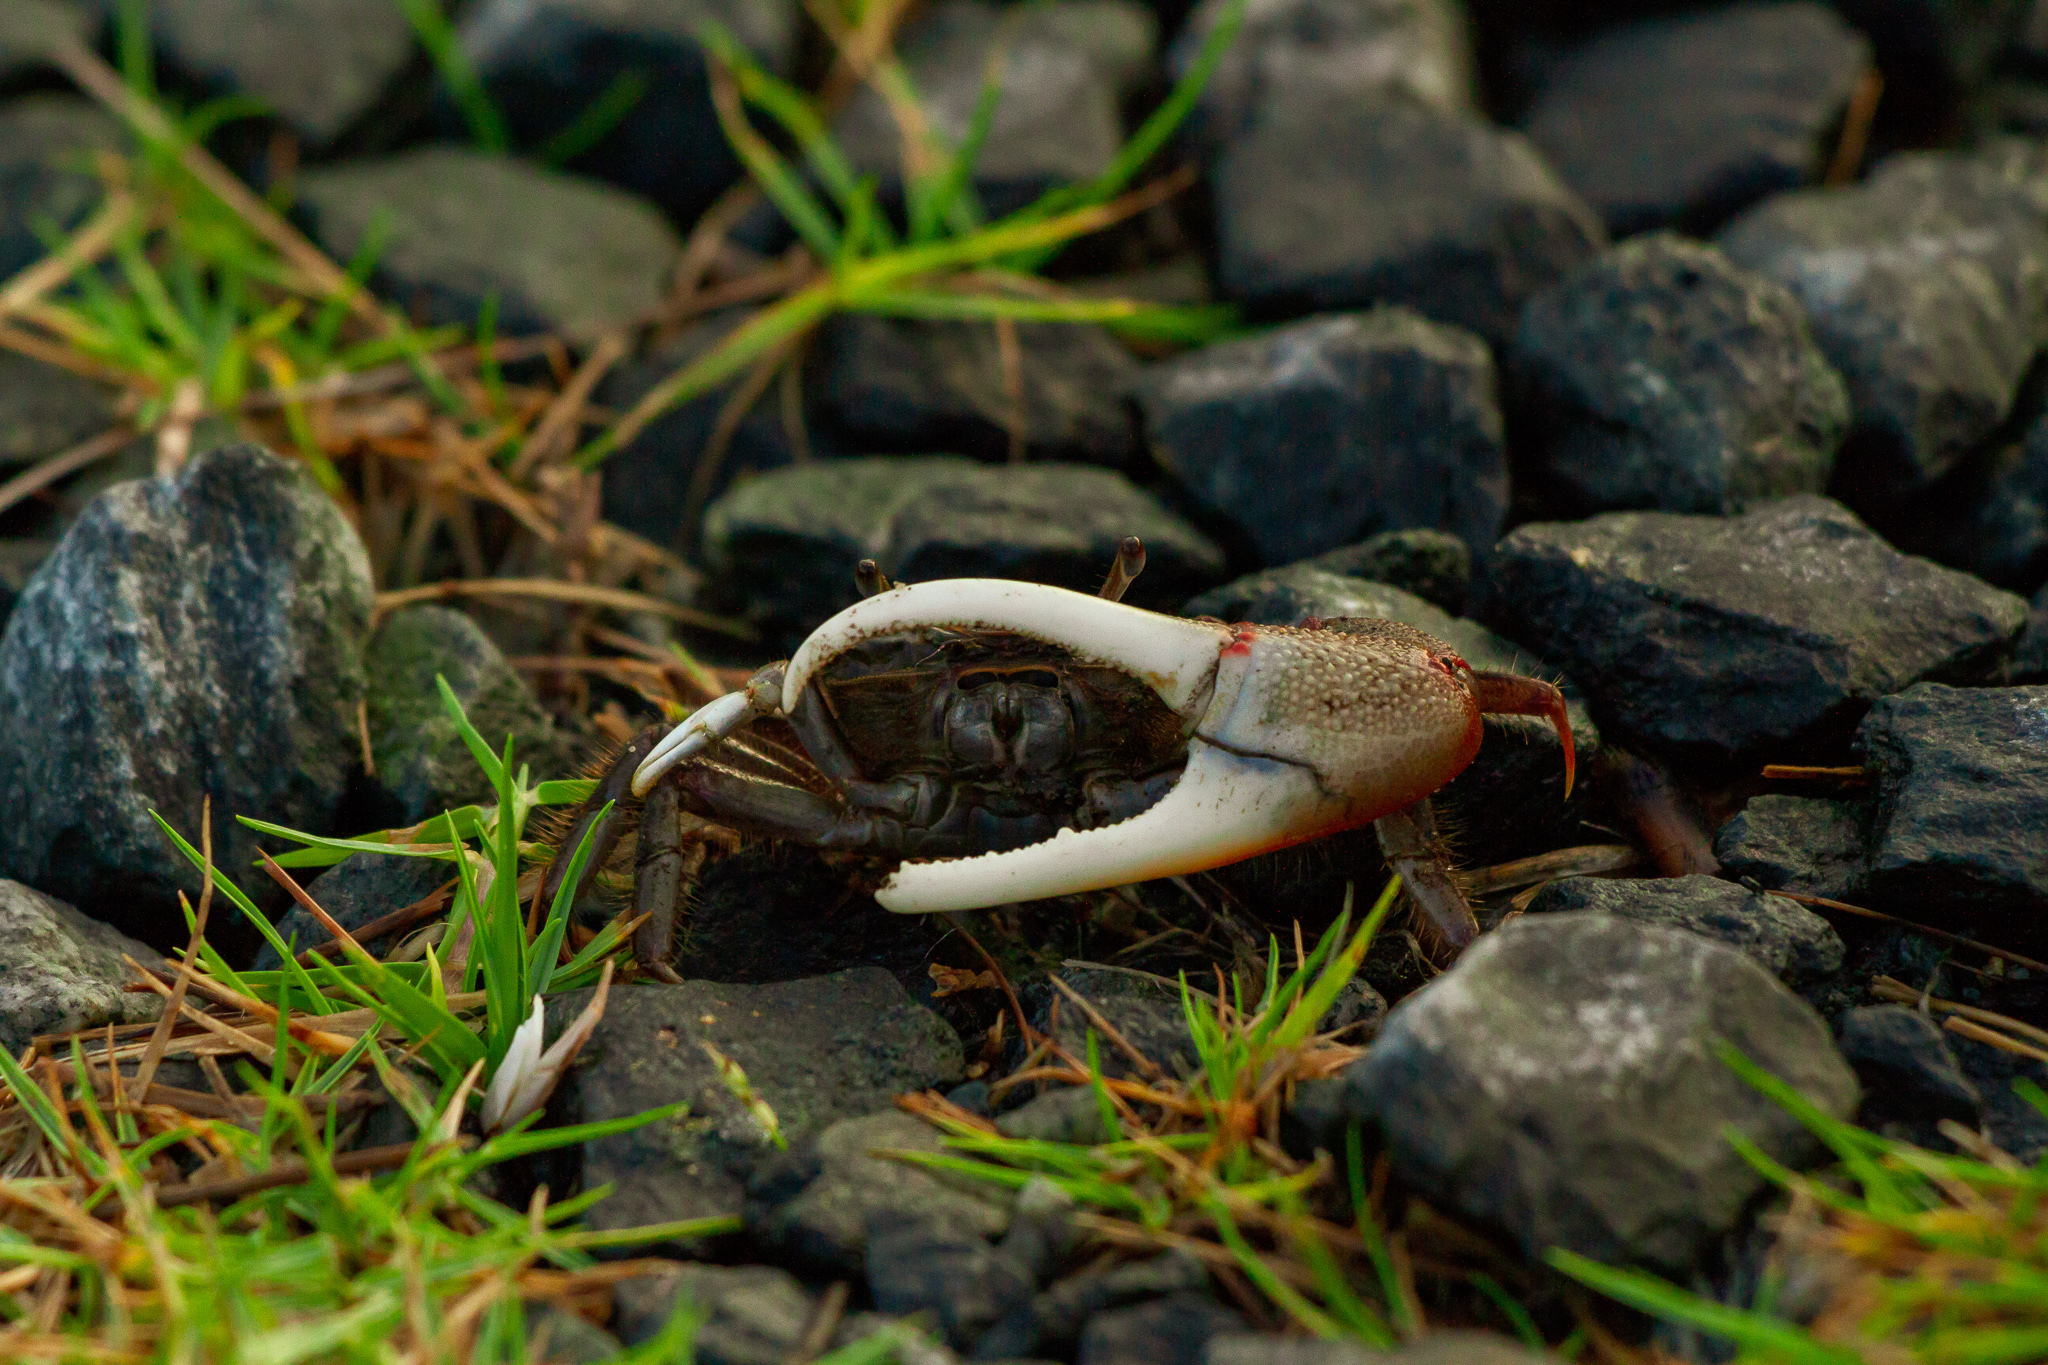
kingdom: Animalia
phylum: Arthropoda
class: Malacostraca
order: Decapoda
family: Ocypodidae
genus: Minuca
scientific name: Minuca minax
